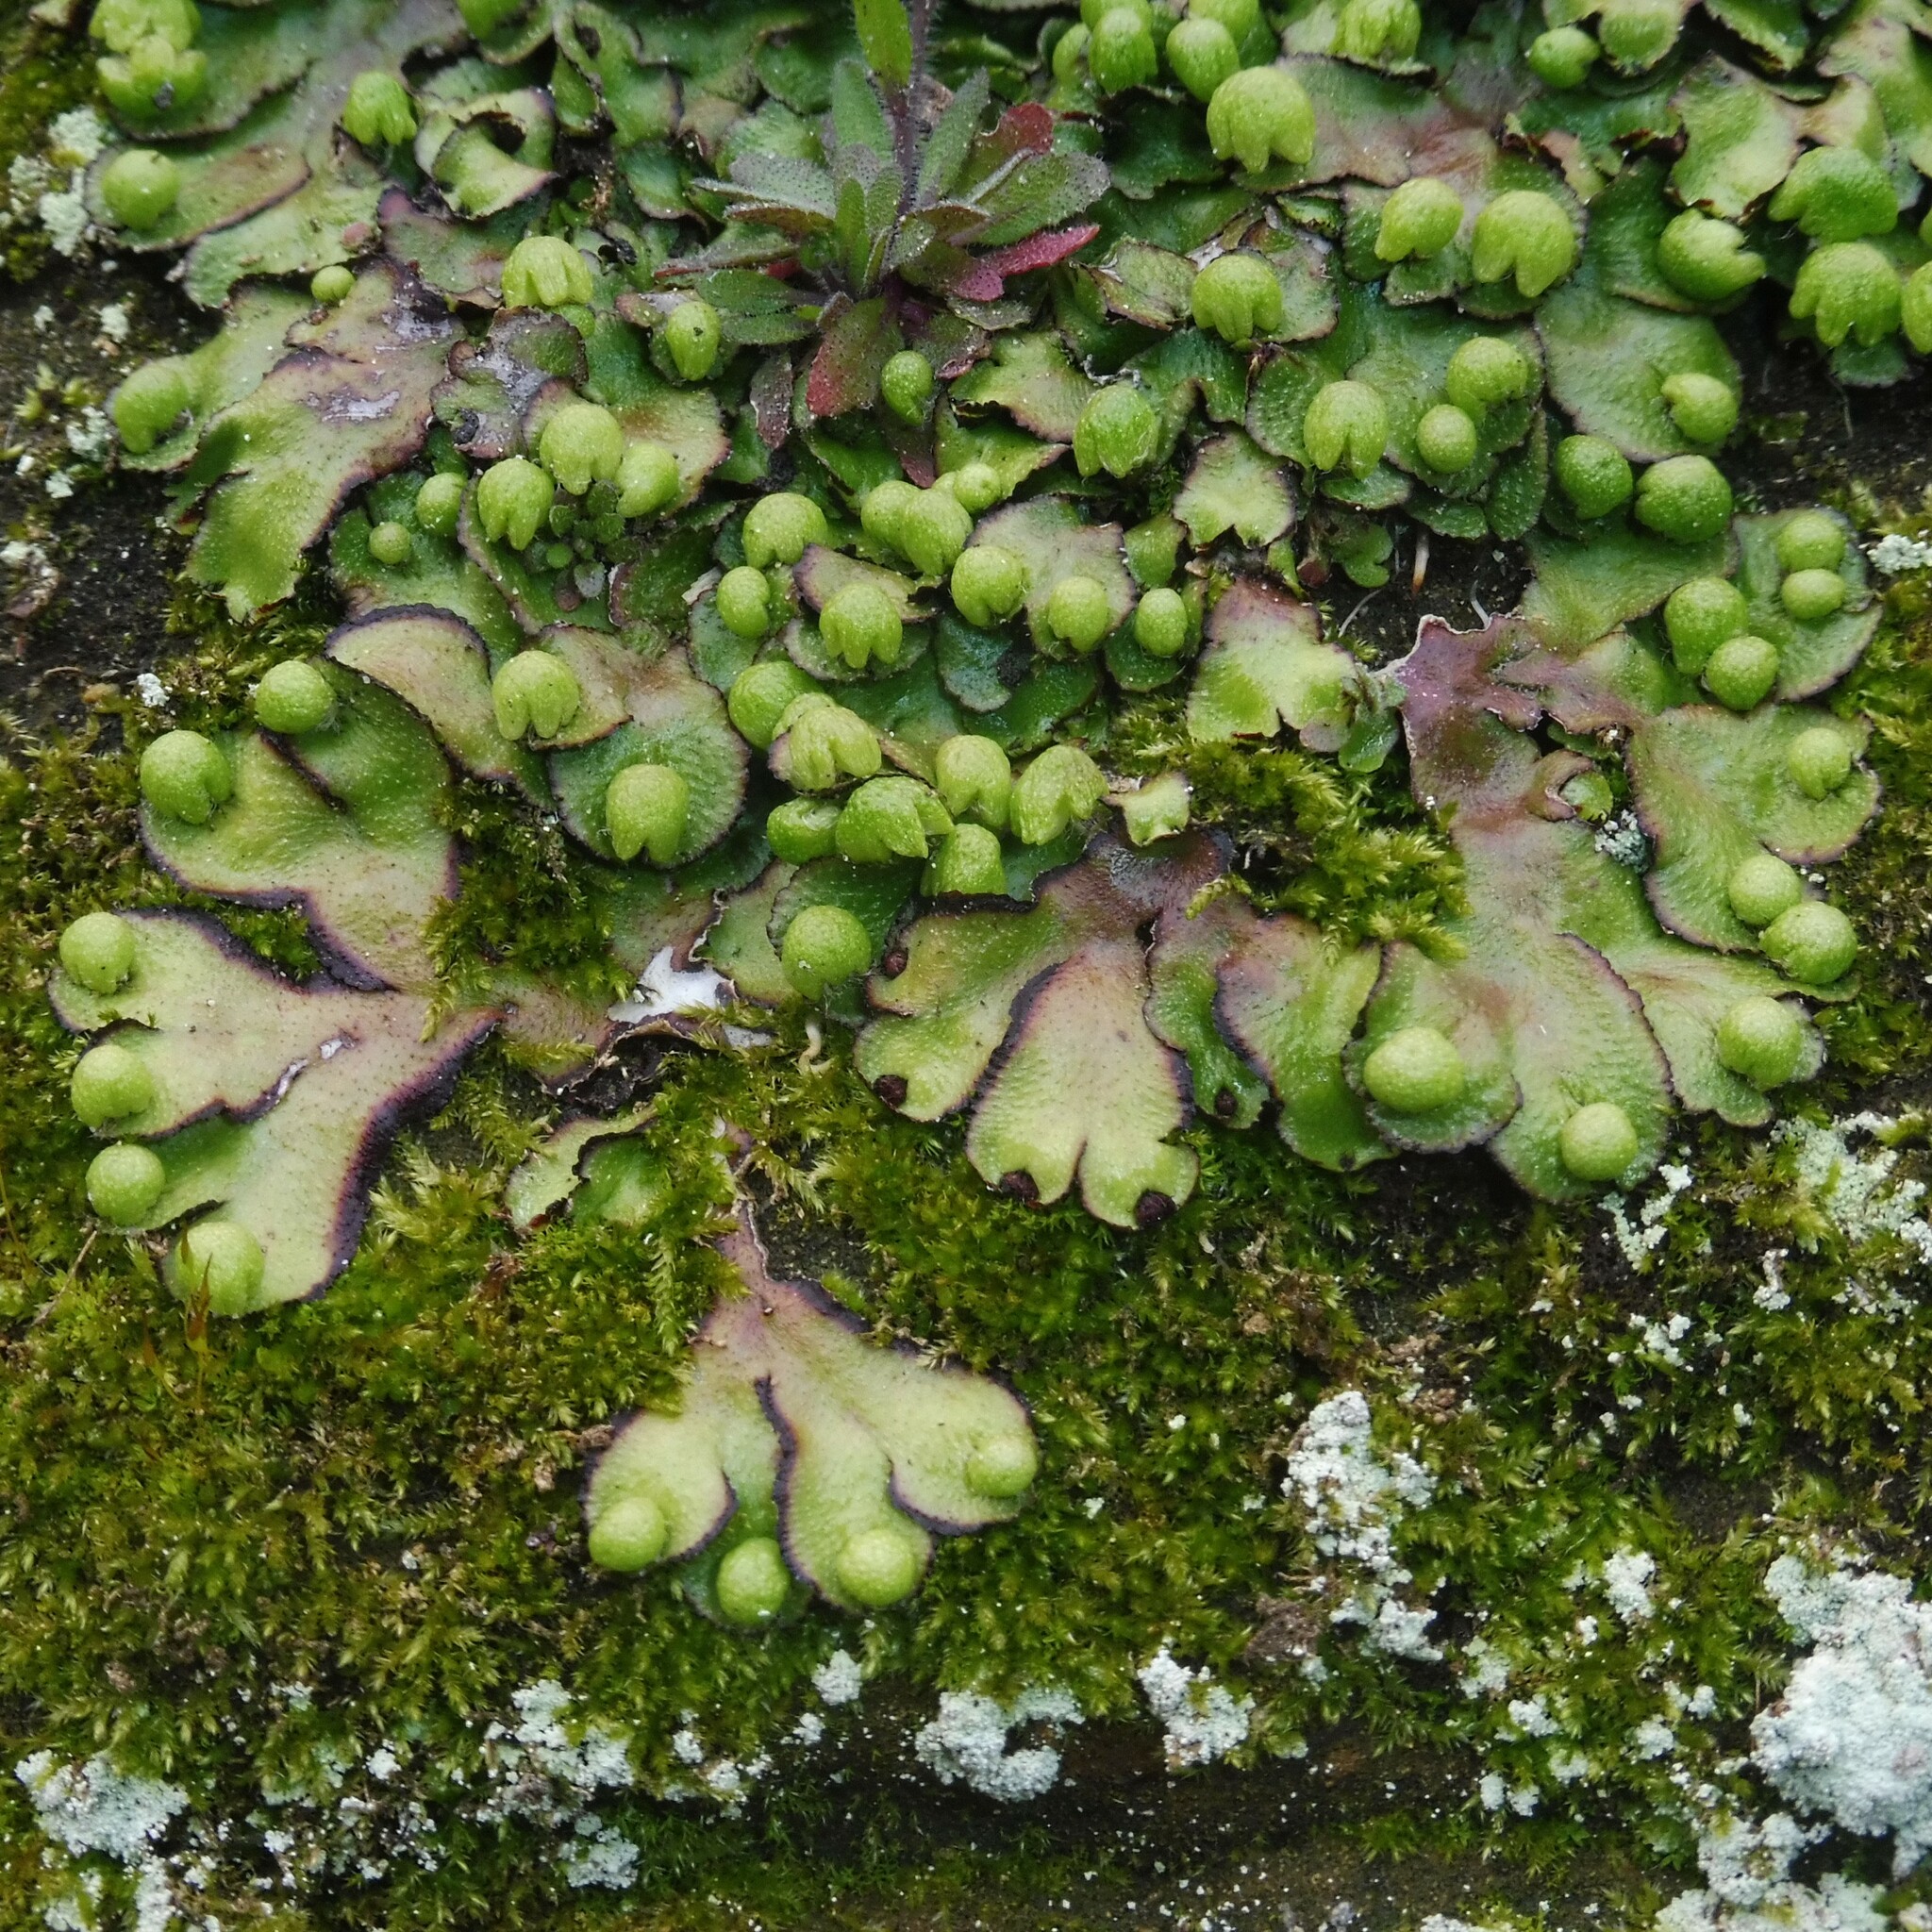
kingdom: Plantae
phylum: Marchantiophyta
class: Marchantiopsida
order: Marchantiales
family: Aytoniaceae
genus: Reboulia
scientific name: Reboulia hemisphaerica
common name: Purple-margined liverwort
